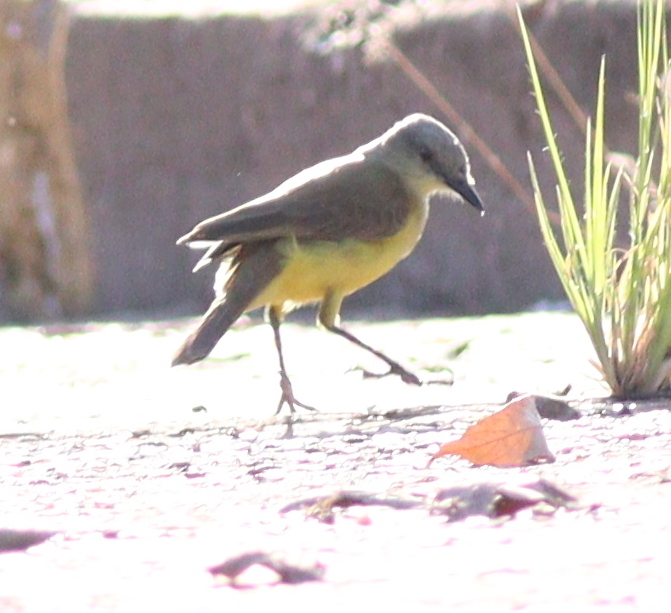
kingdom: Animalia
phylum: Chordata
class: Aves
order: Passeriformes
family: Tyrannidae
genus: Machetornis
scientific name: Machetornis rixosa
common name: Cattle tyrant
